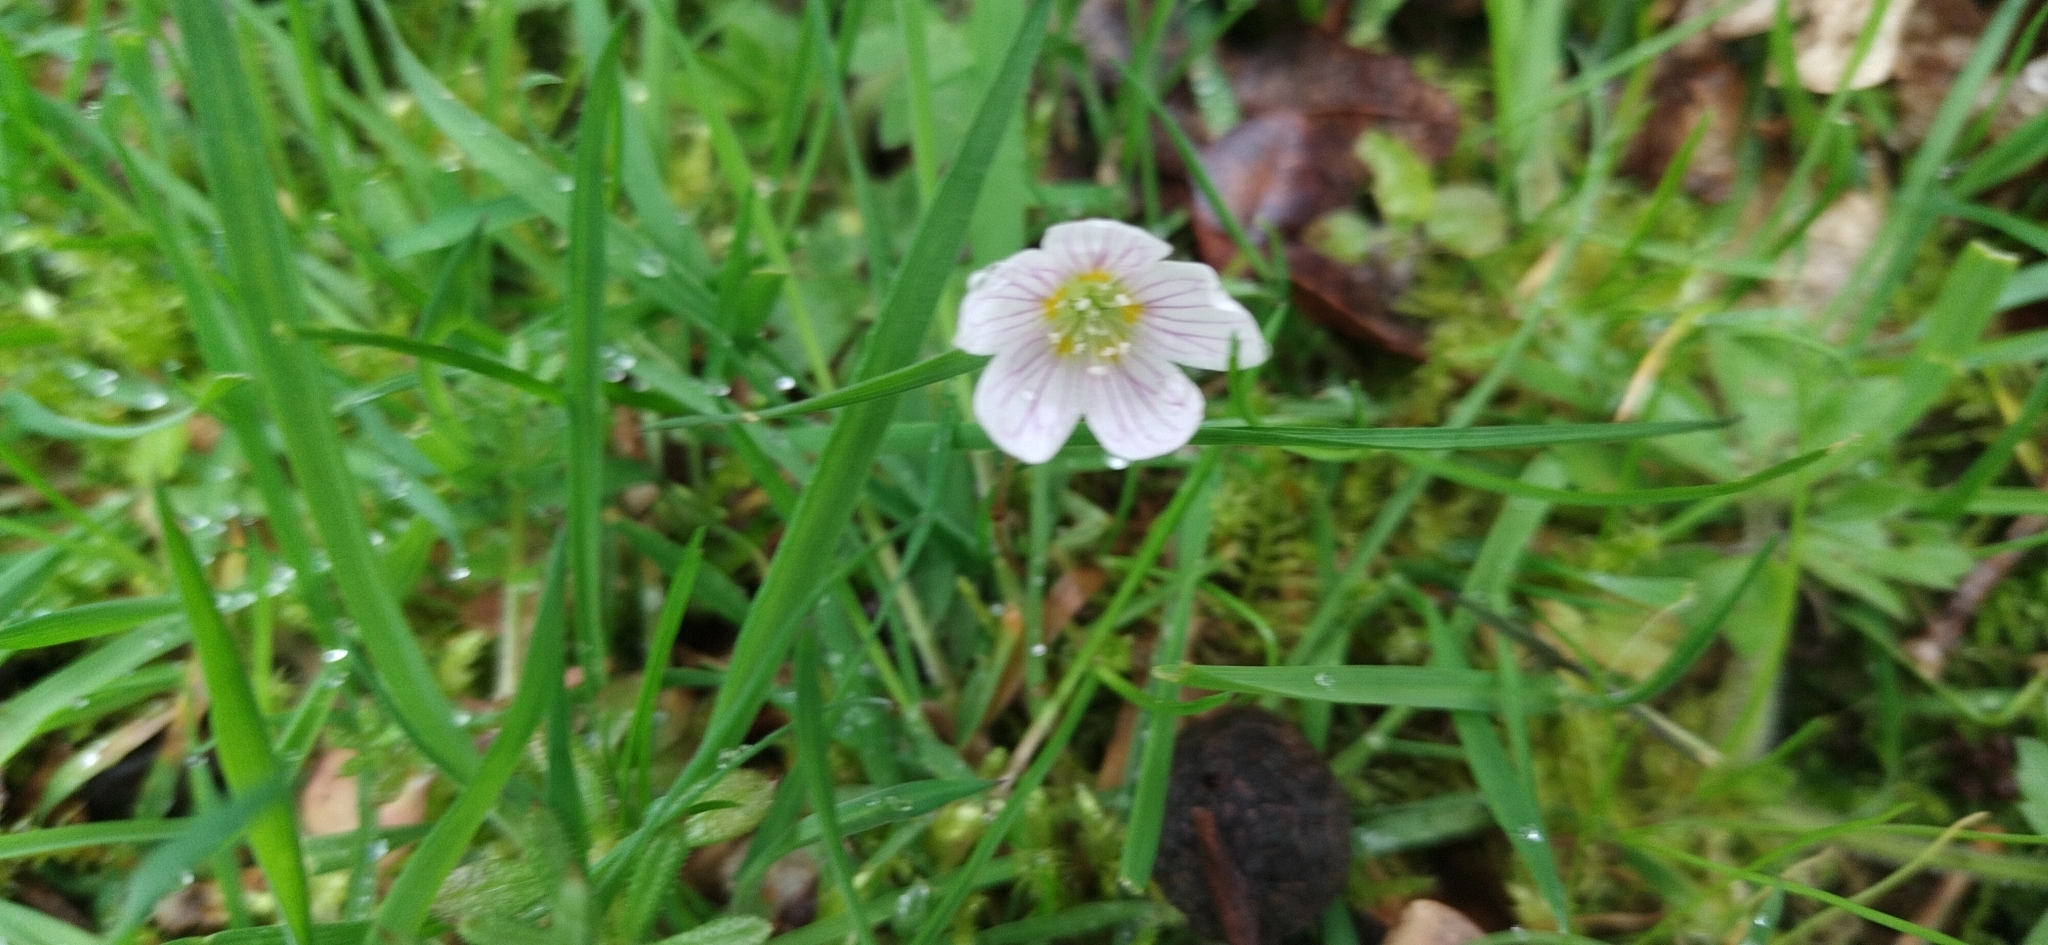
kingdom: Plantae
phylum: Tracheophyta
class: Magnoliopsida
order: Oxalidales
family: Oxalidaceae
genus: Oxalis
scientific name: Oxalis acetosella
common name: Wood-sorrel
